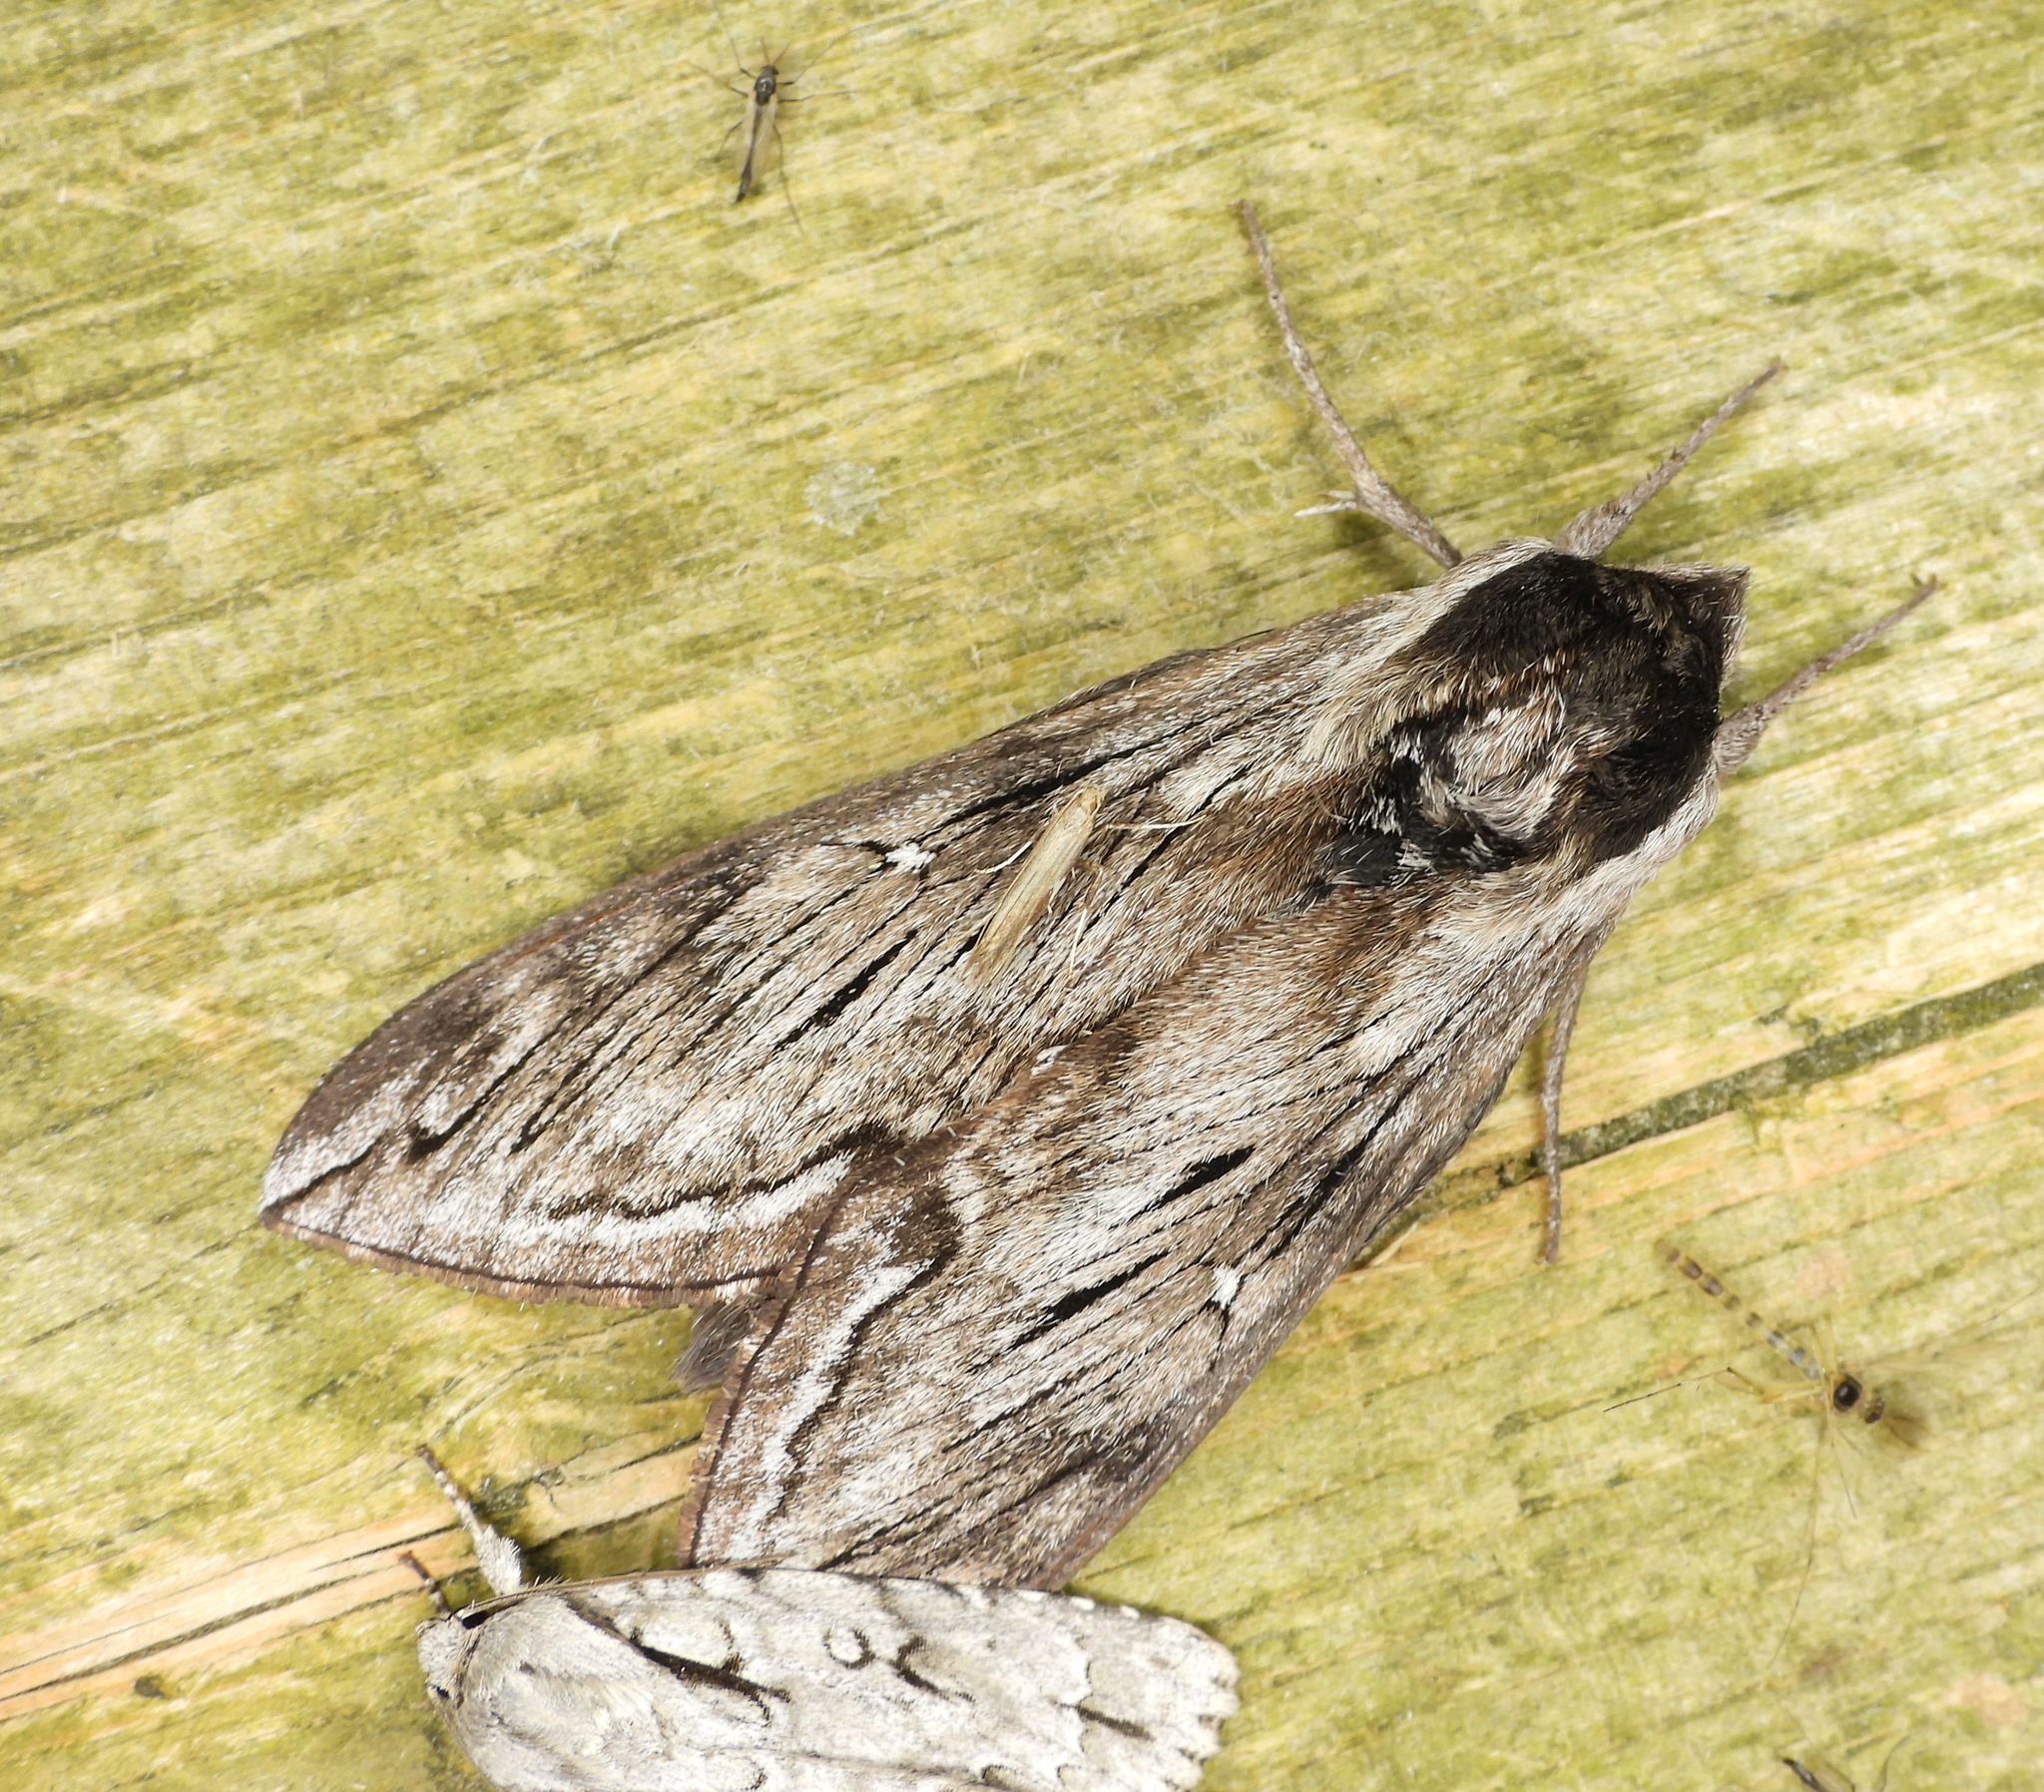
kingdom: Animalia
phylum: Arthropoda
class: Insecta
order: Lepidoptera
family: Sphingidae
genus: Sphinx
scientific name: Sphinx poecila
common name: Northern apple sphinx
